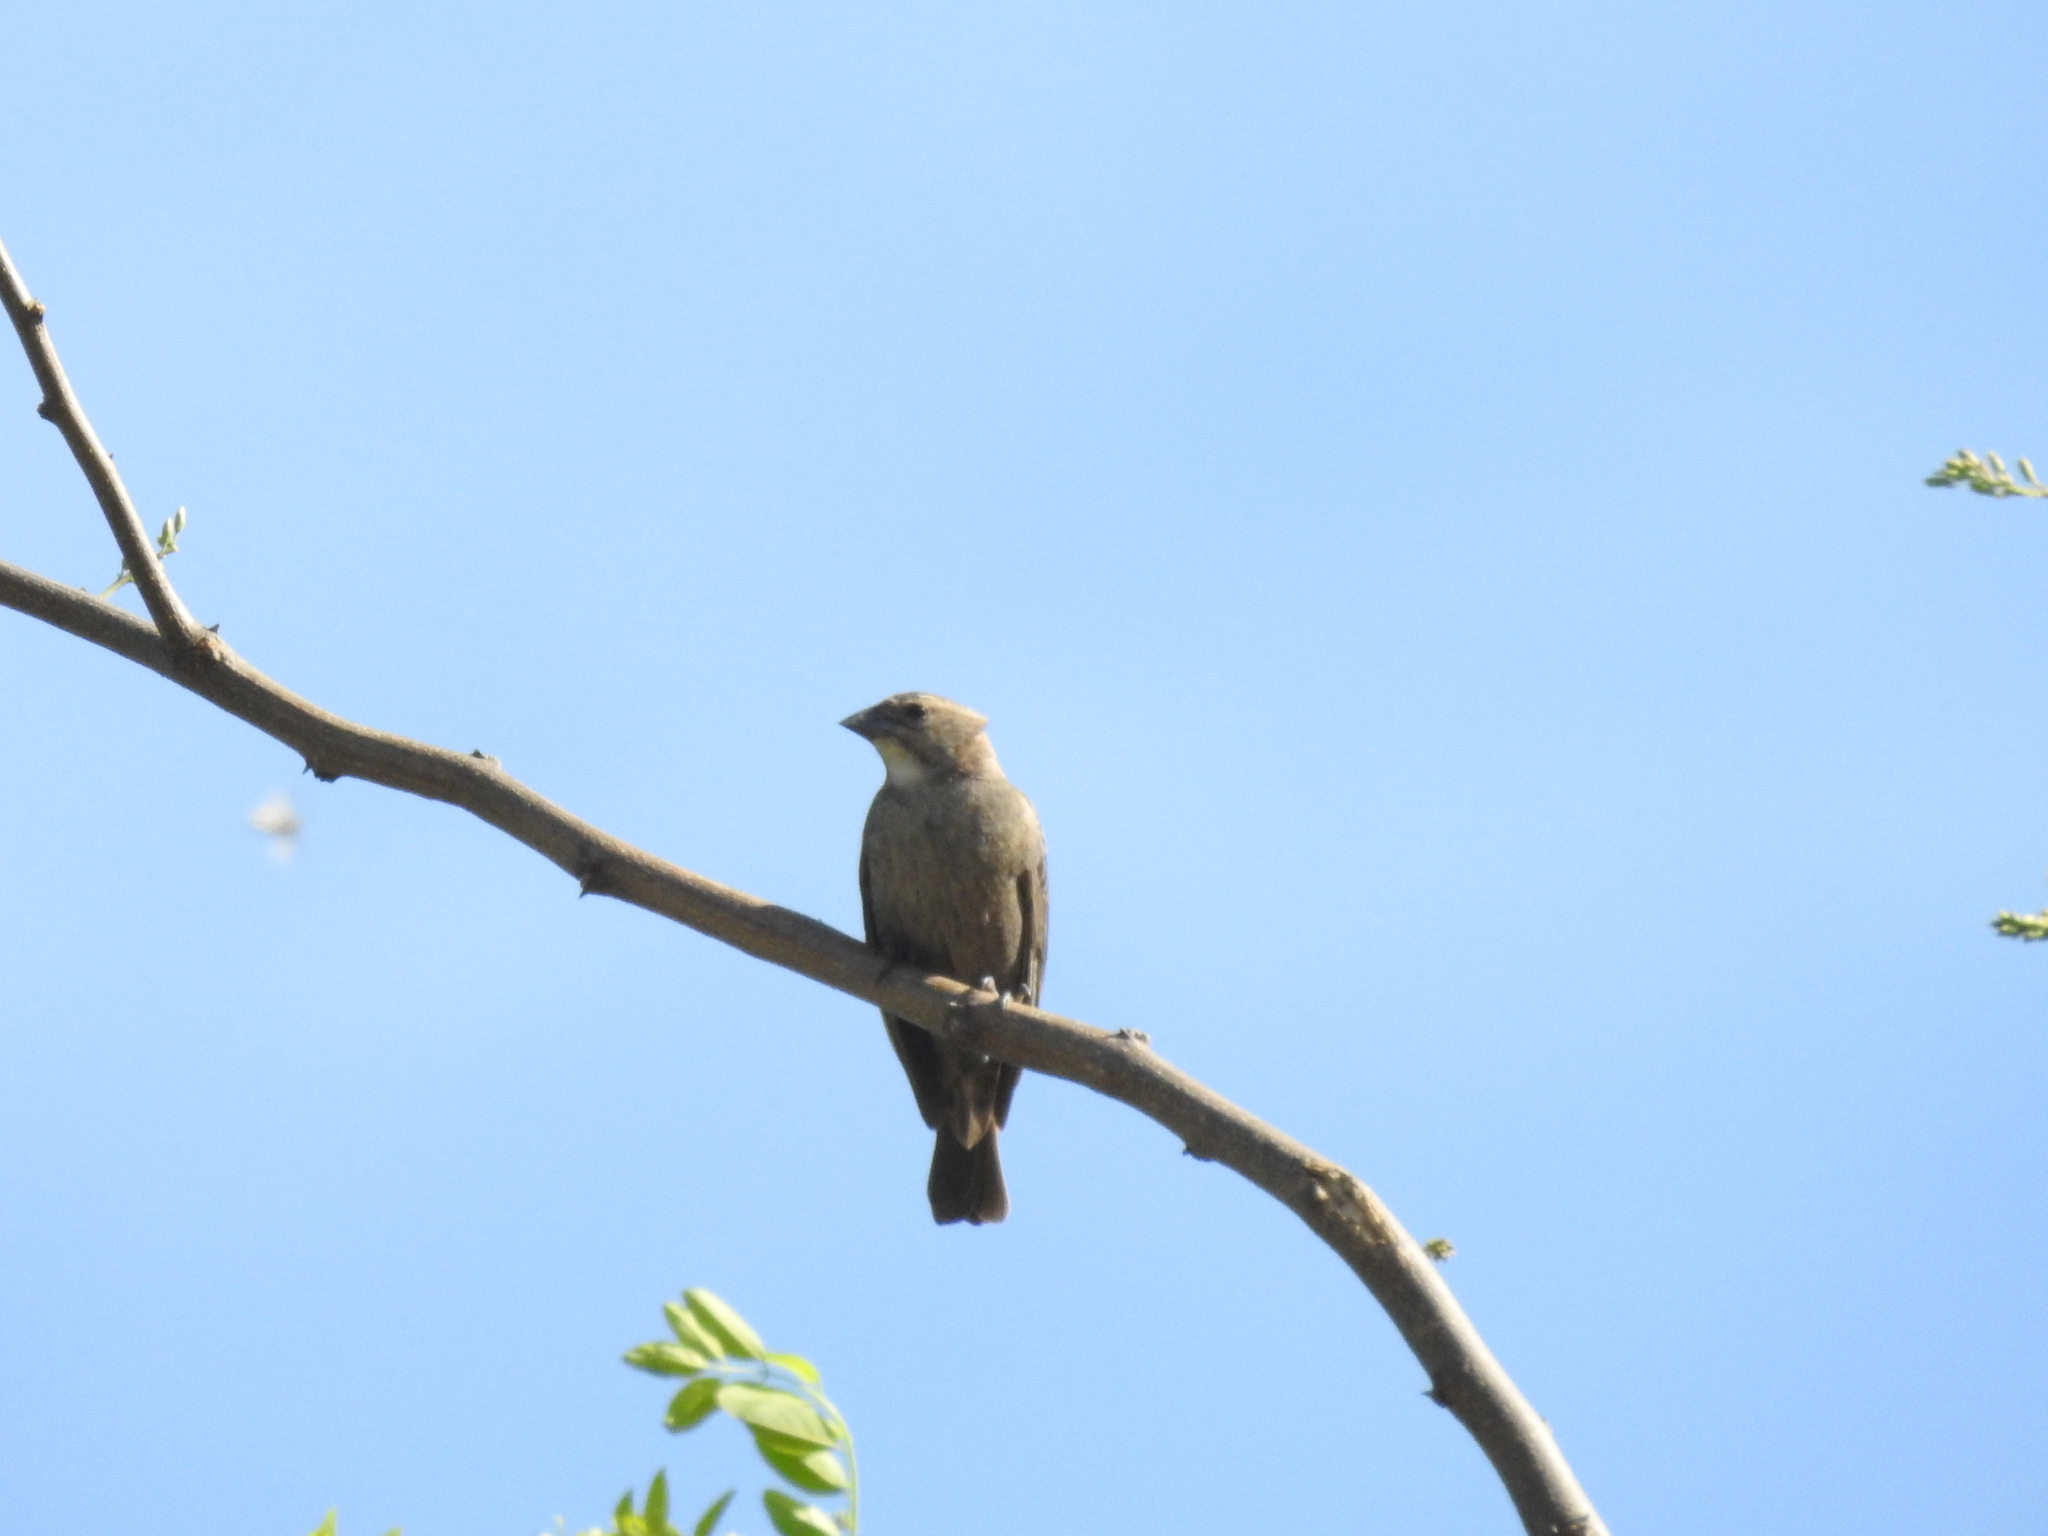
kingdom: Animalia
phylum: Chordata
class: Aves
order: Passeriformes
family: Icteridae
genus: Molothrus
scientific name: Molothrus ater
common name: Brown-headed cowbird
